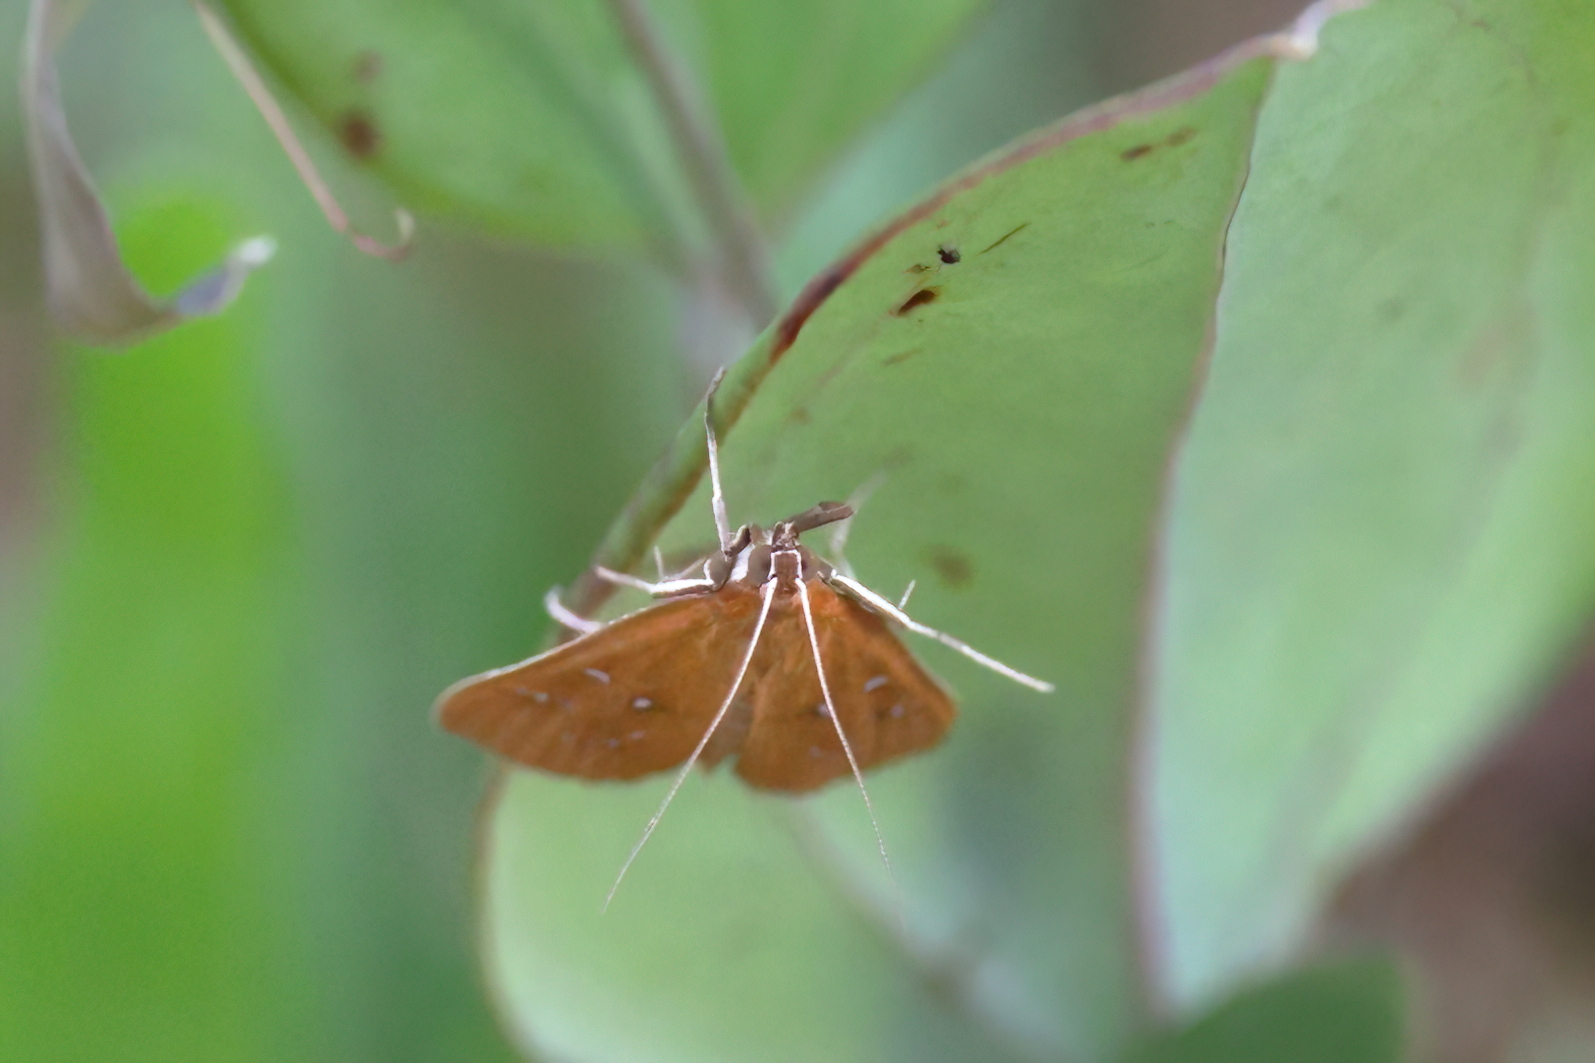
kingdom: Animalia
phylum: Arthropoda
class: Insecta
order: Lepidoptera
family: Crambidae
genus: Diastictis
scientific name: Diastictis ventralis
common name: White-spotted brown
